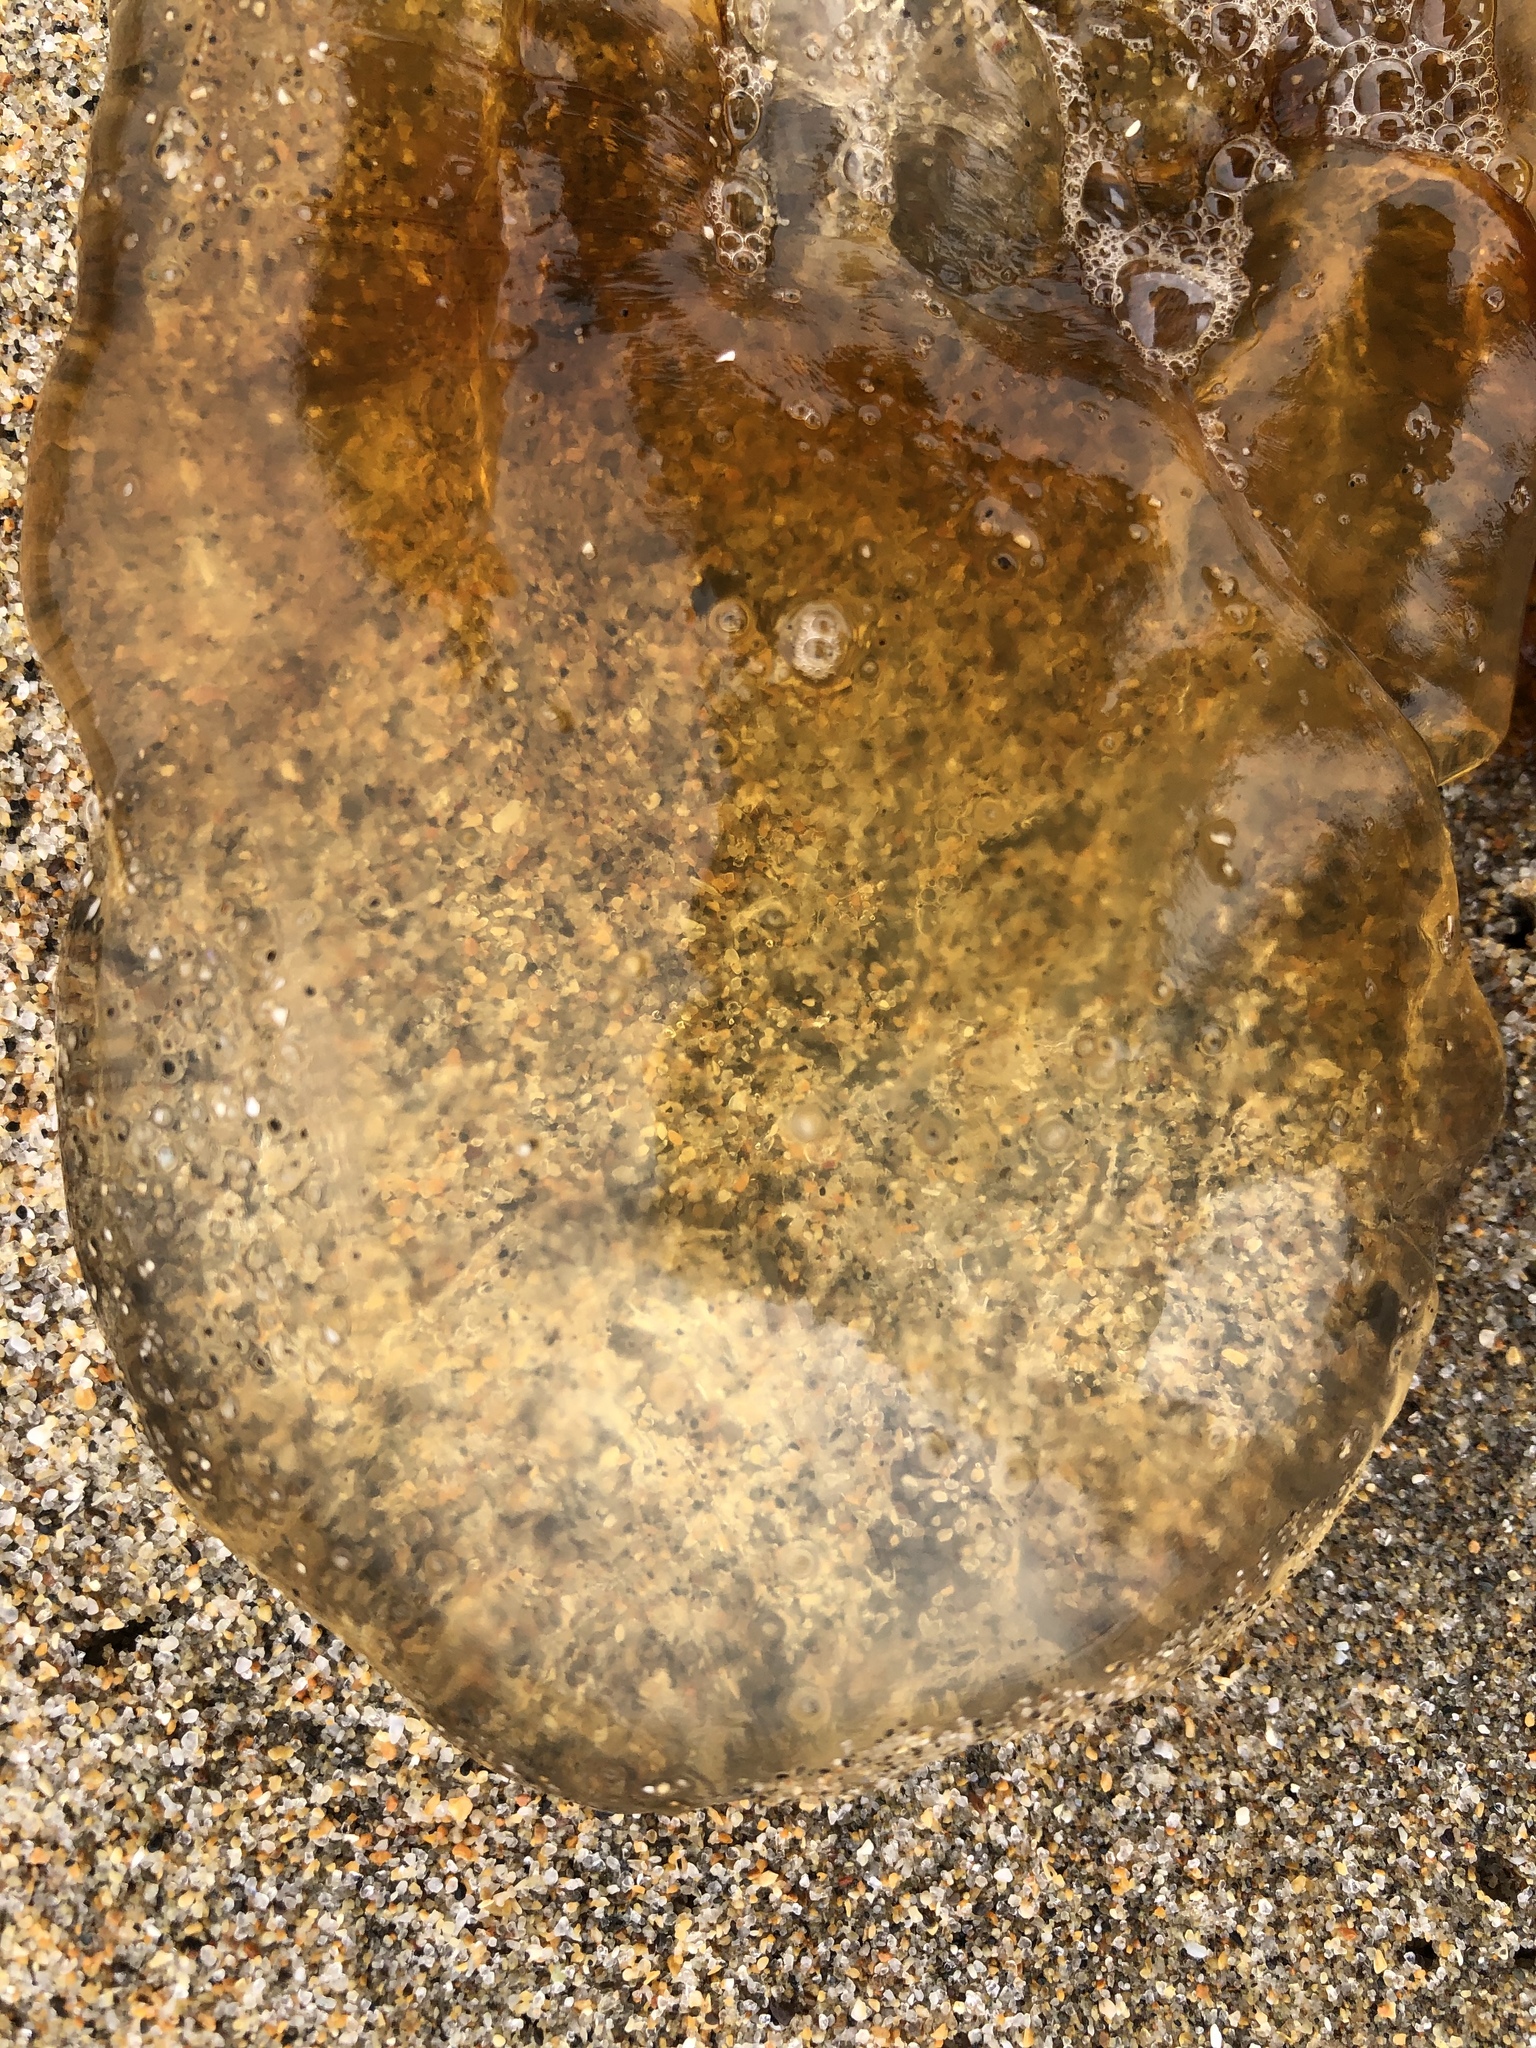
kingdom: Animalia
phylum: Cnidaria
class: Scyphozoa
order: Semaeostomeae
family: Pelagiidae
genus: Chrysaora
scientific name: Chrysaora fuscescens
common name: Sea nettle
